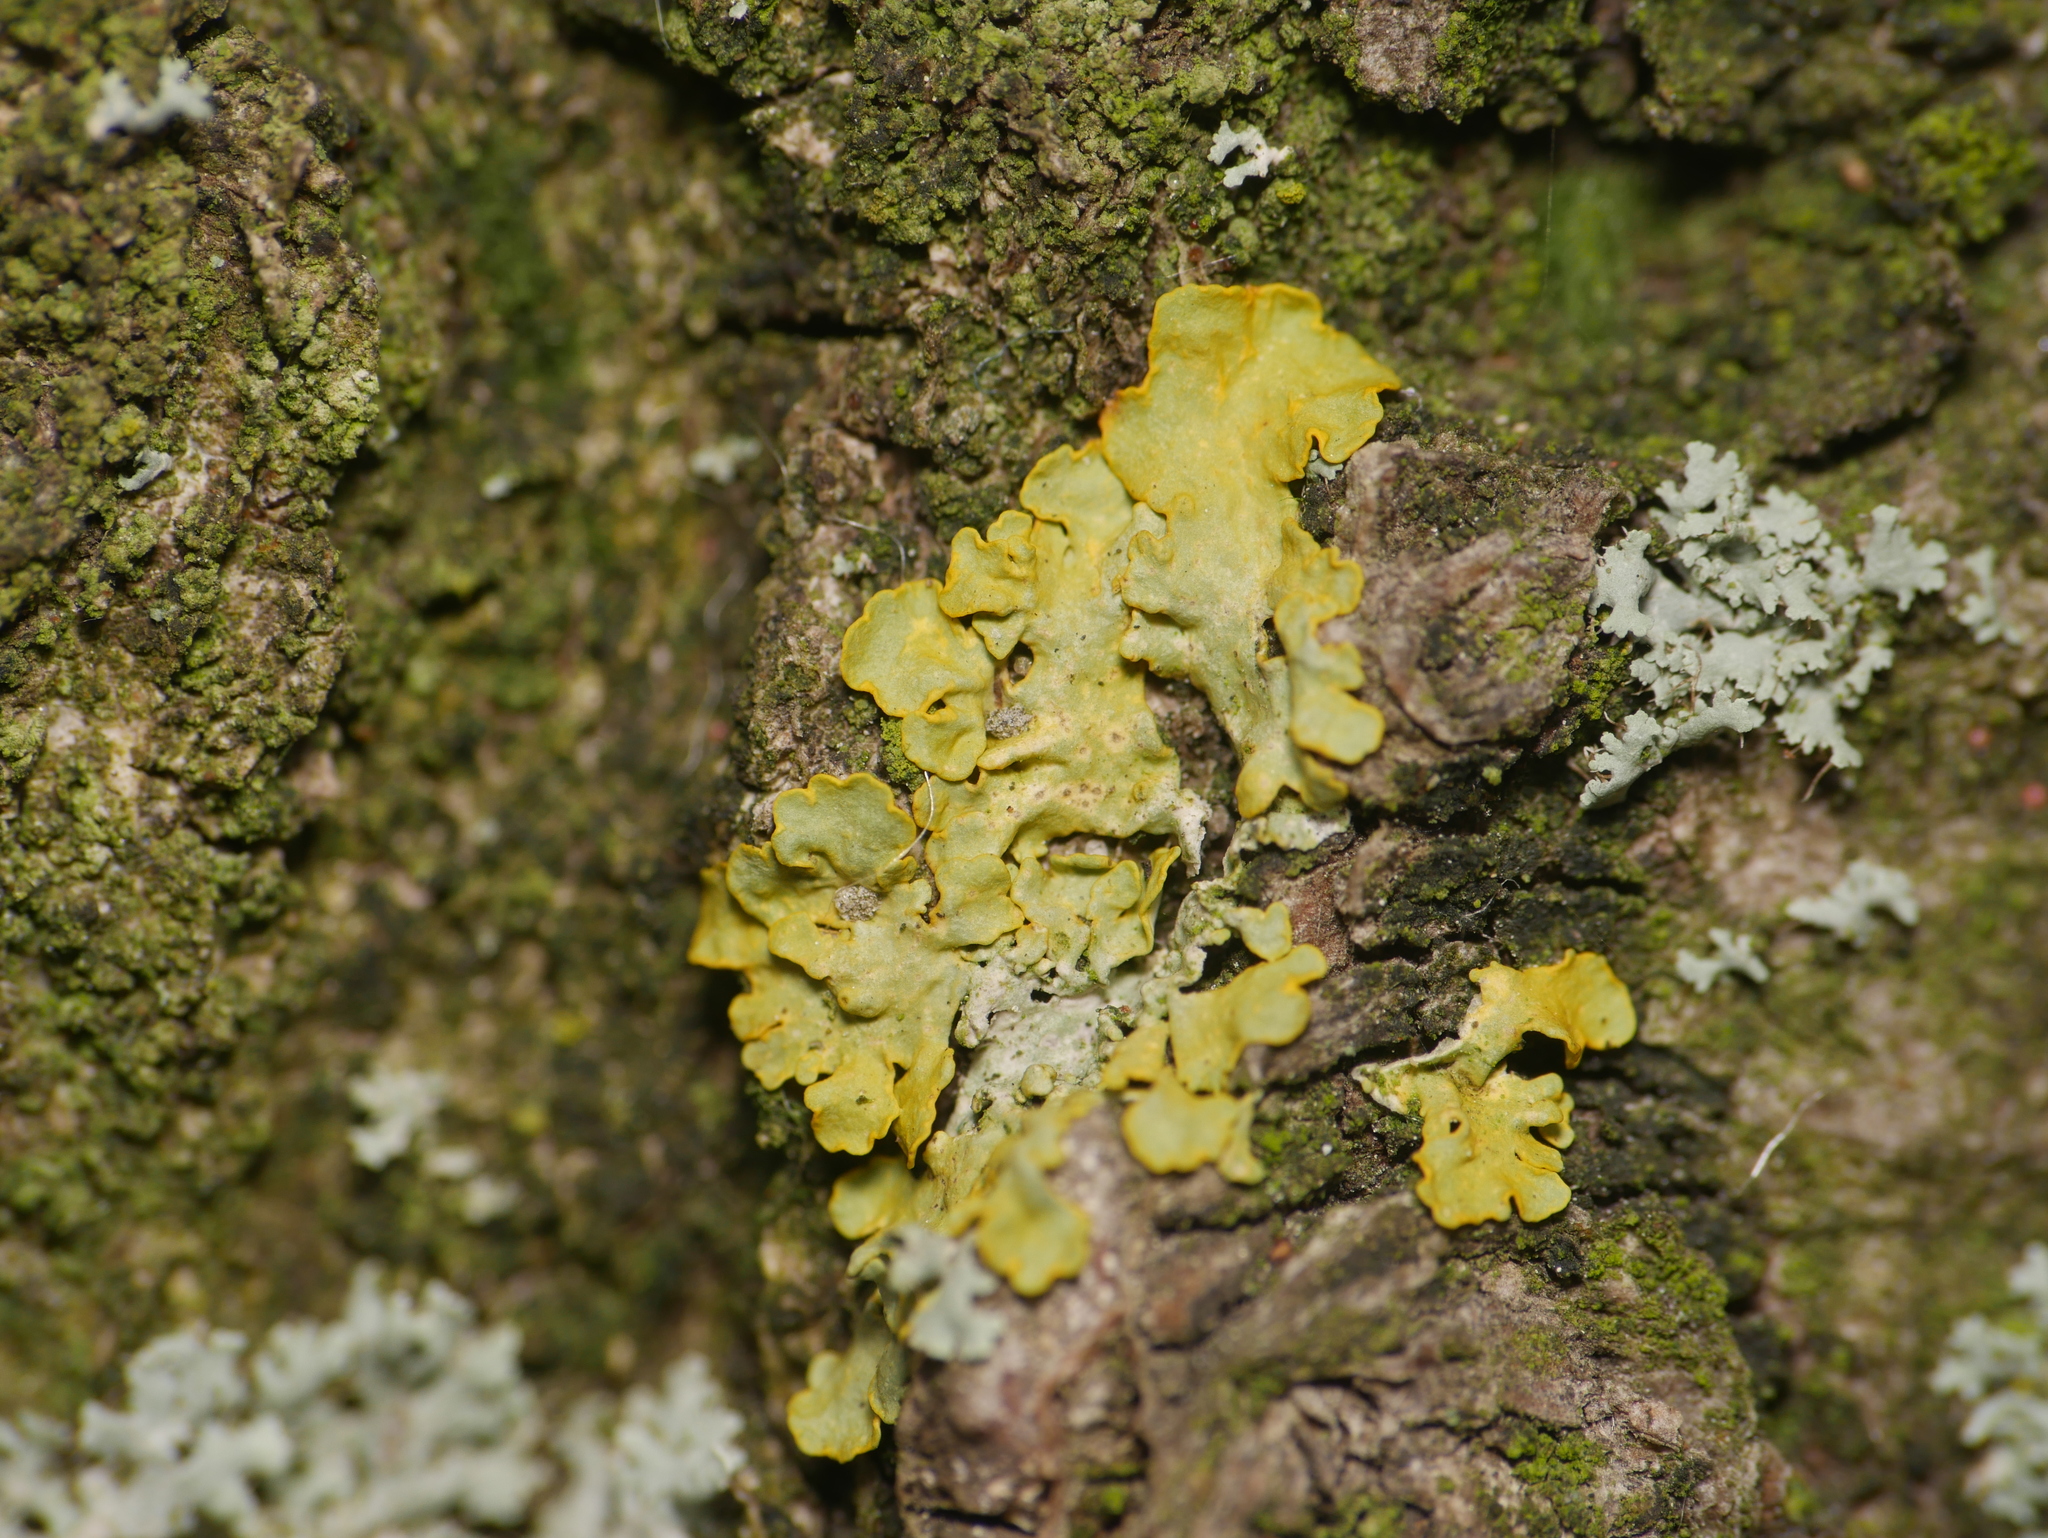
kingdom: Fungi
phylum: Ascomycota
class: Lecanoromycetes
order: Teloschistales
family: Teloschistaceae
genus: Xanthoria
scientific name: Xanthoria parietina
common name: Common orange lichen
